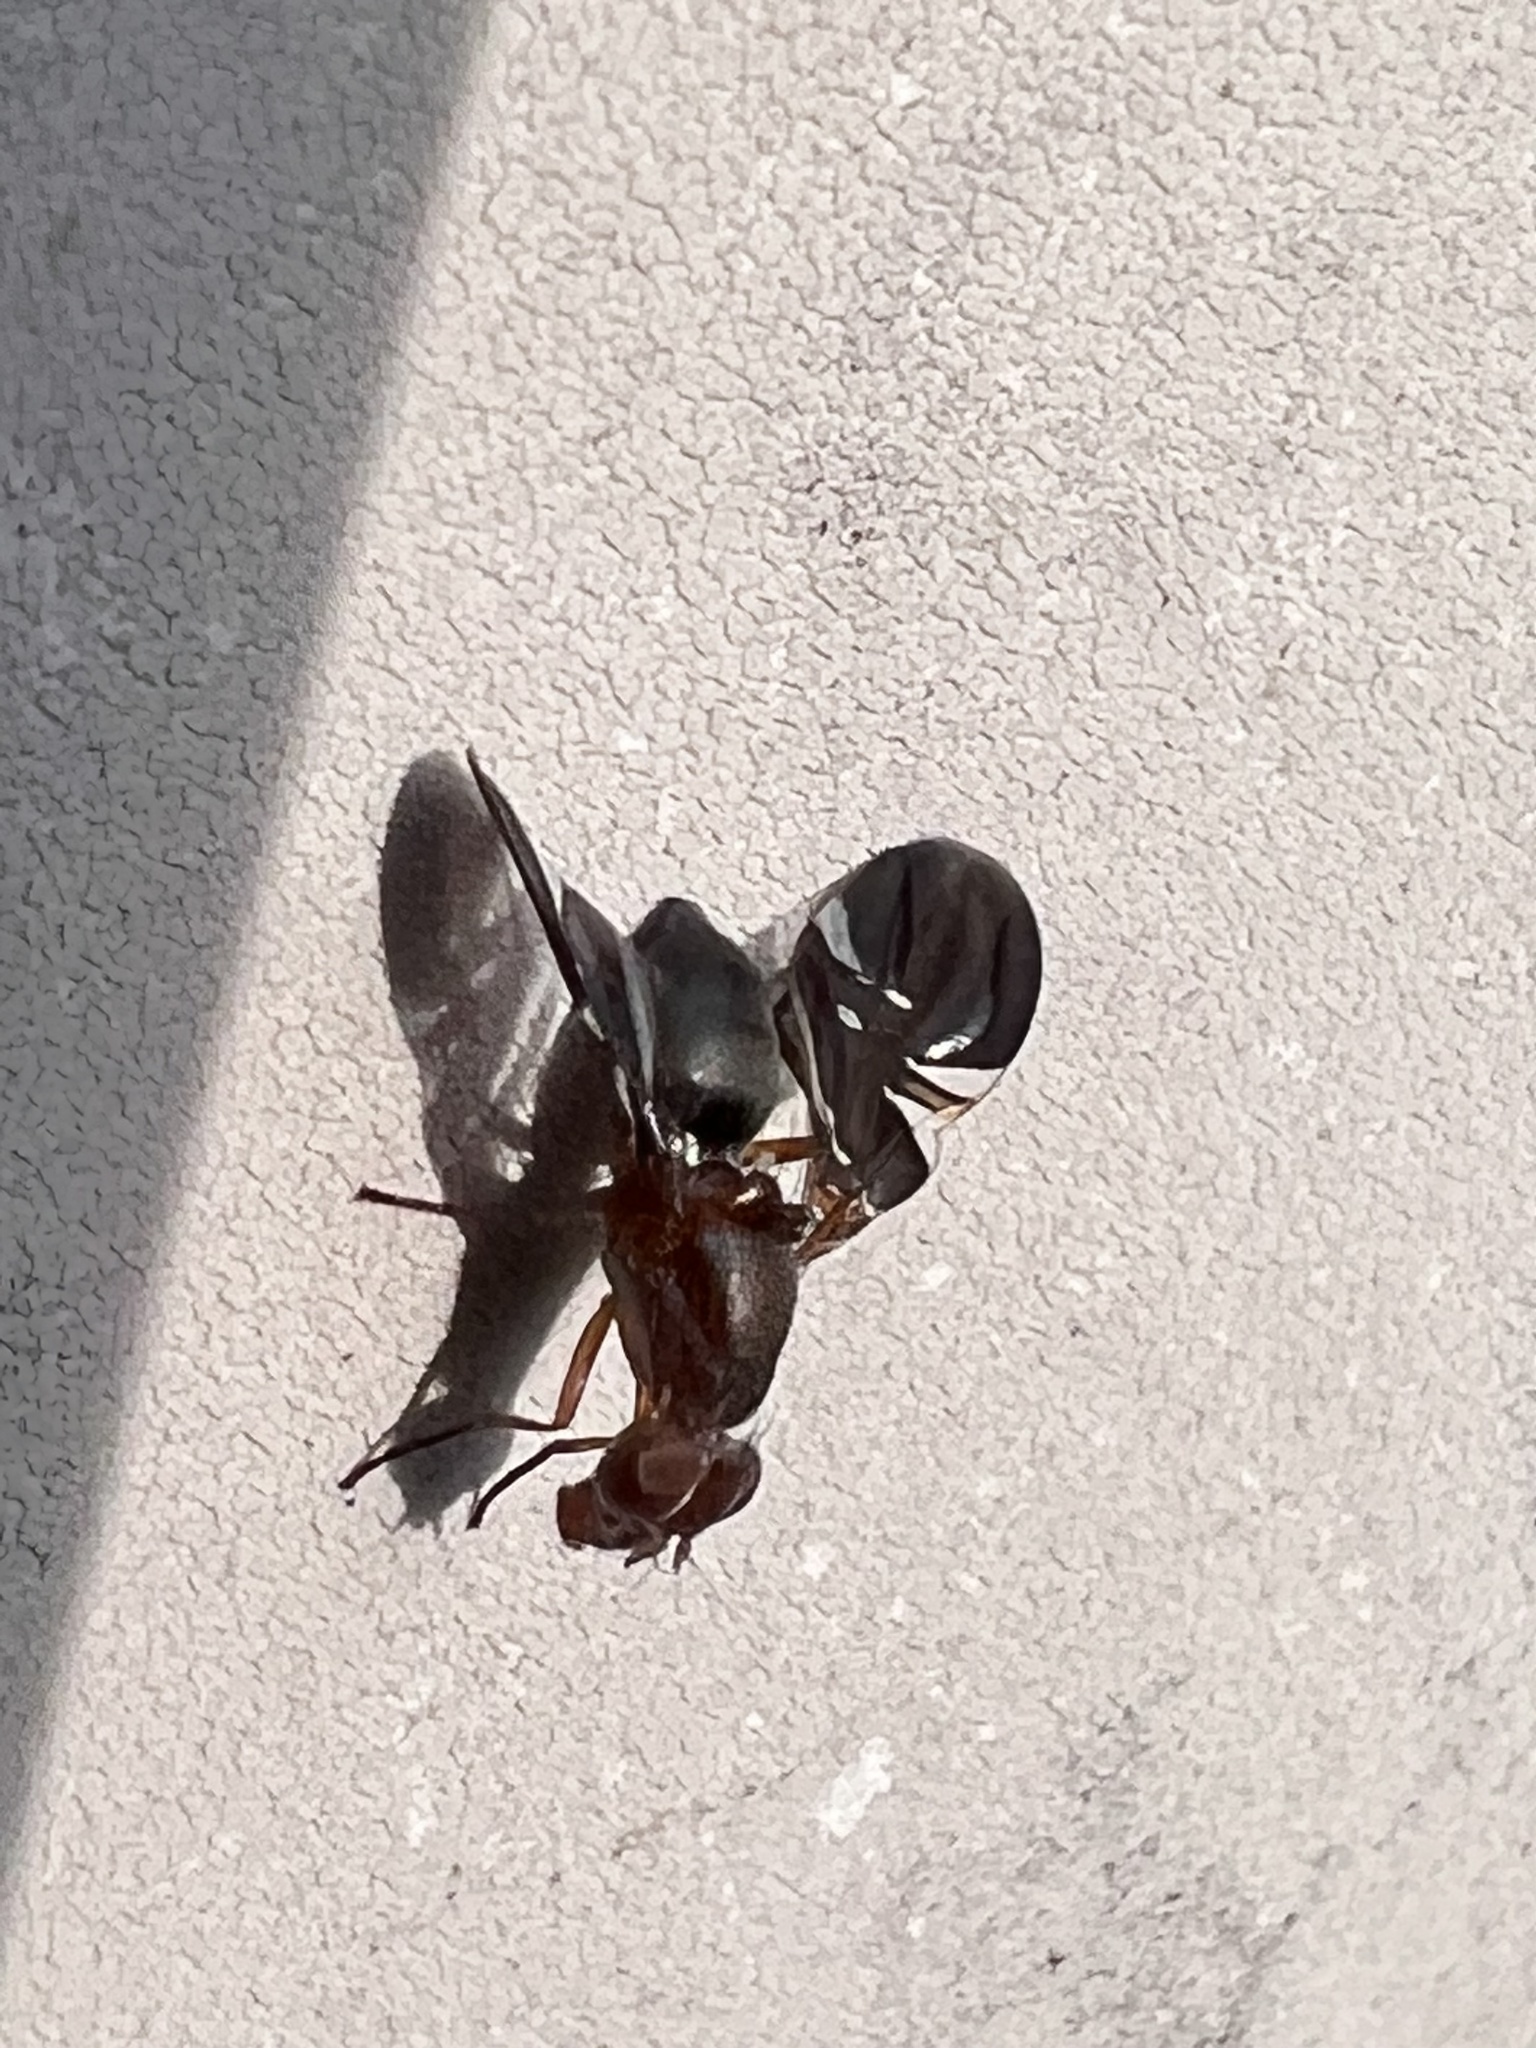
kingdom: Animalia
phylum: Arthropoda
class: Insecta
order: Diptera
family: Ulidiidae
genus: Delphinia
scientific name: Delphinia picta
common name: Common picture-winged fly
